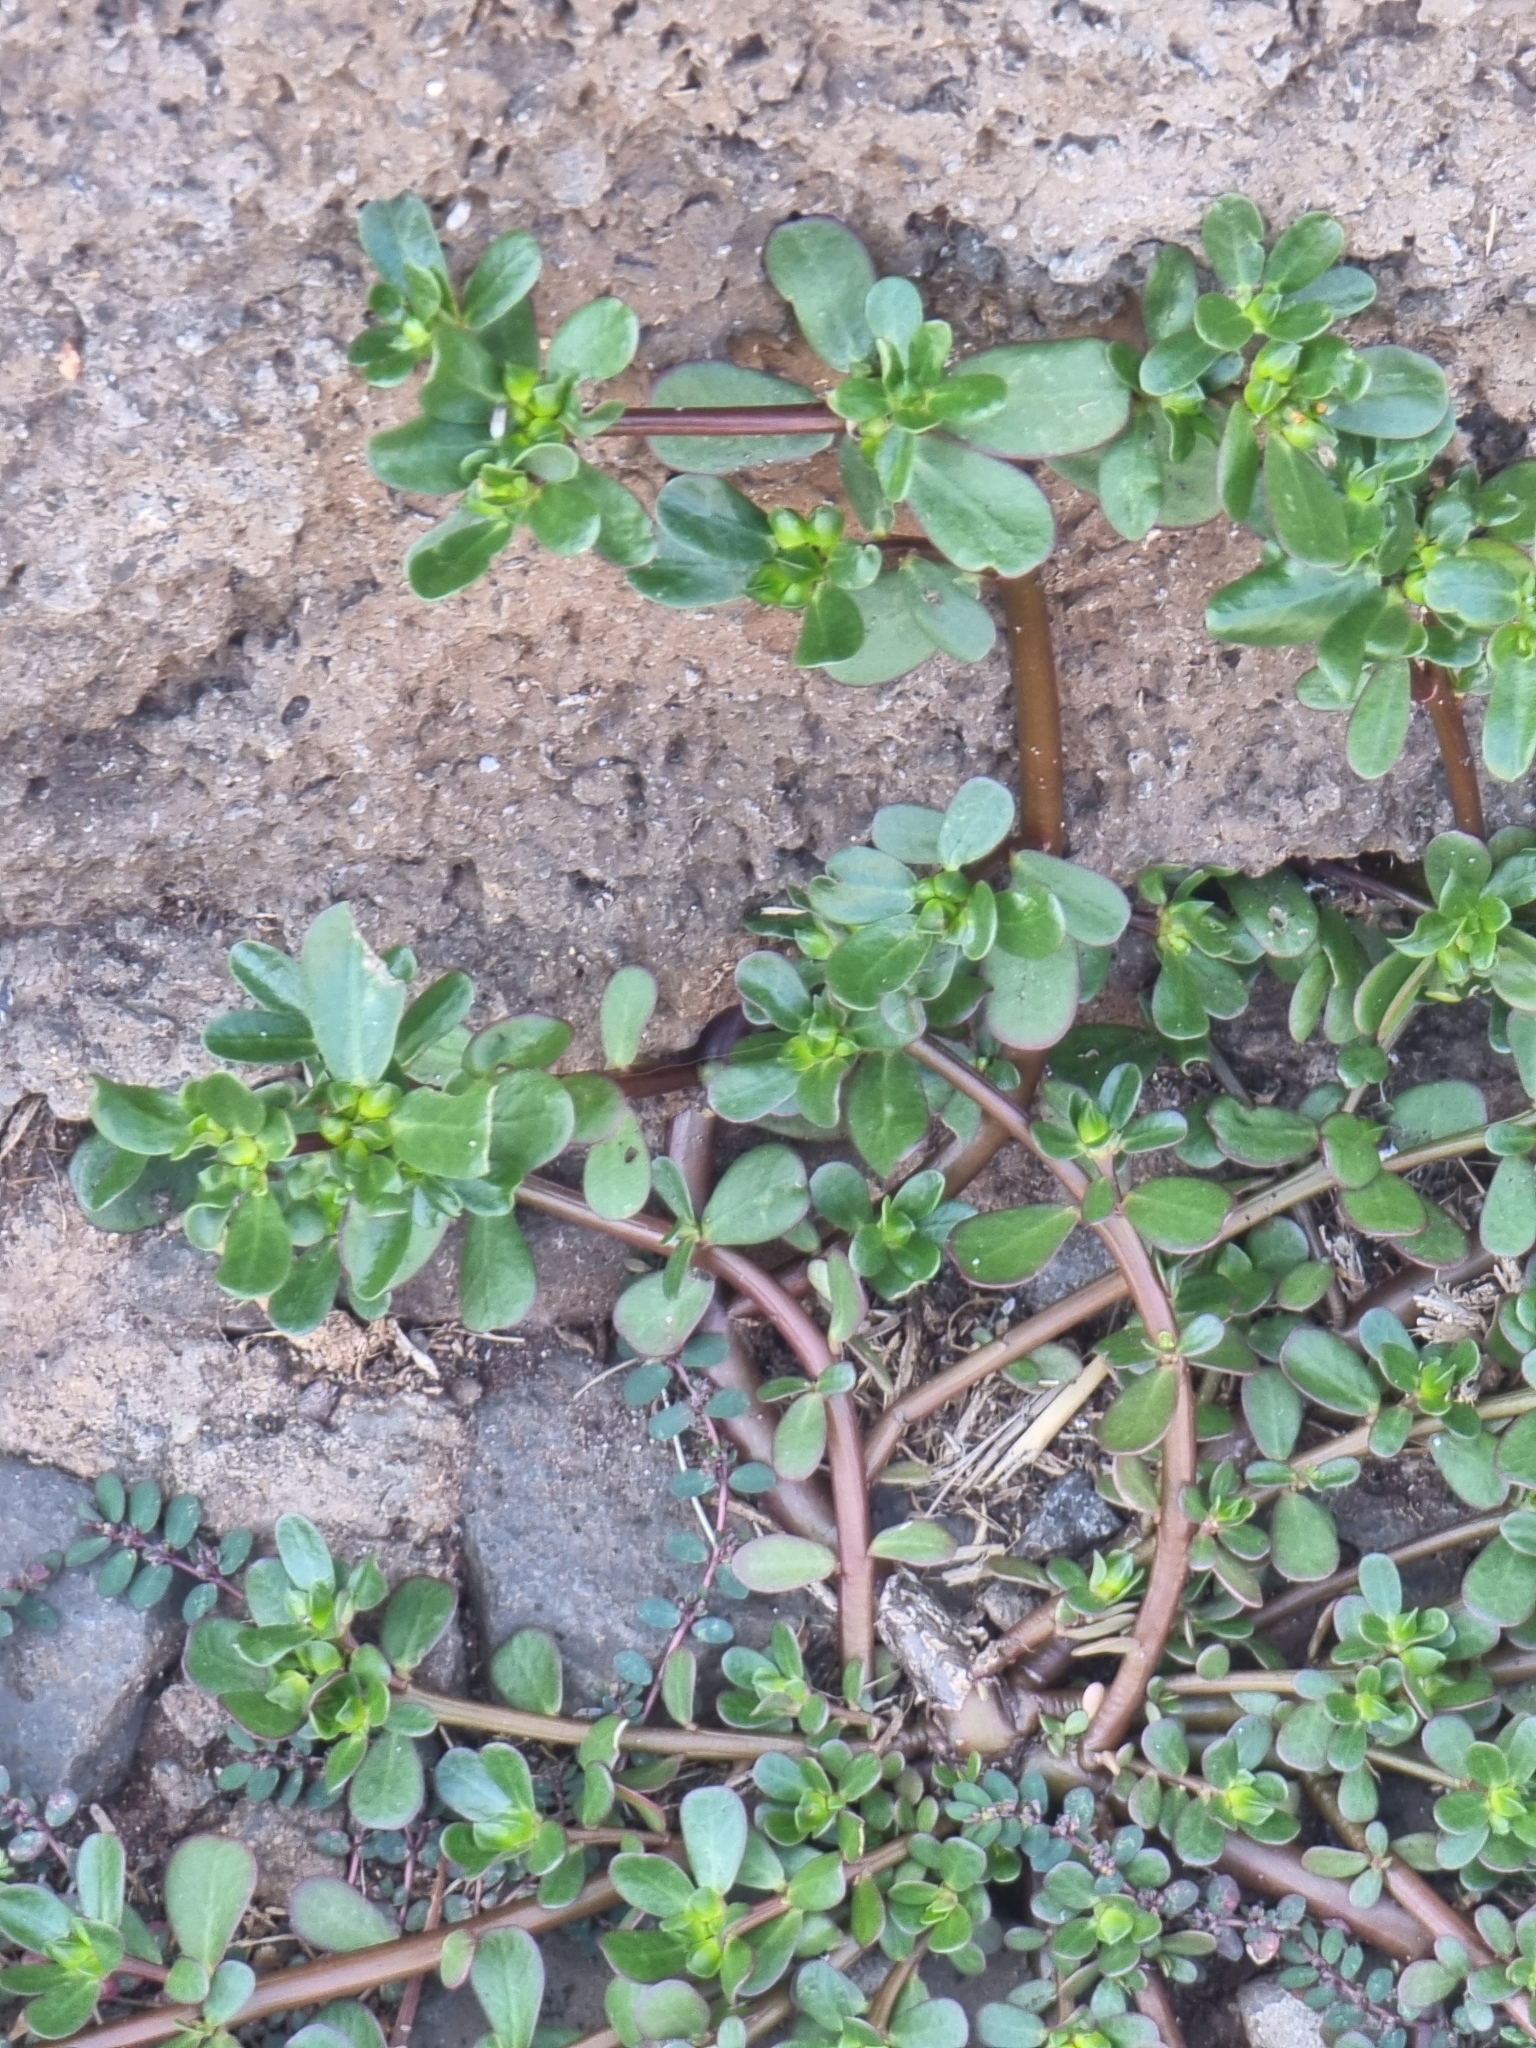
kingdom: Plantae
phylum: Tracheophyta
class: Magnoliopsida
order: Caryophyllales
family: Portulacaceae
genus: Portulaca
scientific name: Portulaca oleracea
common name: Common purslane
